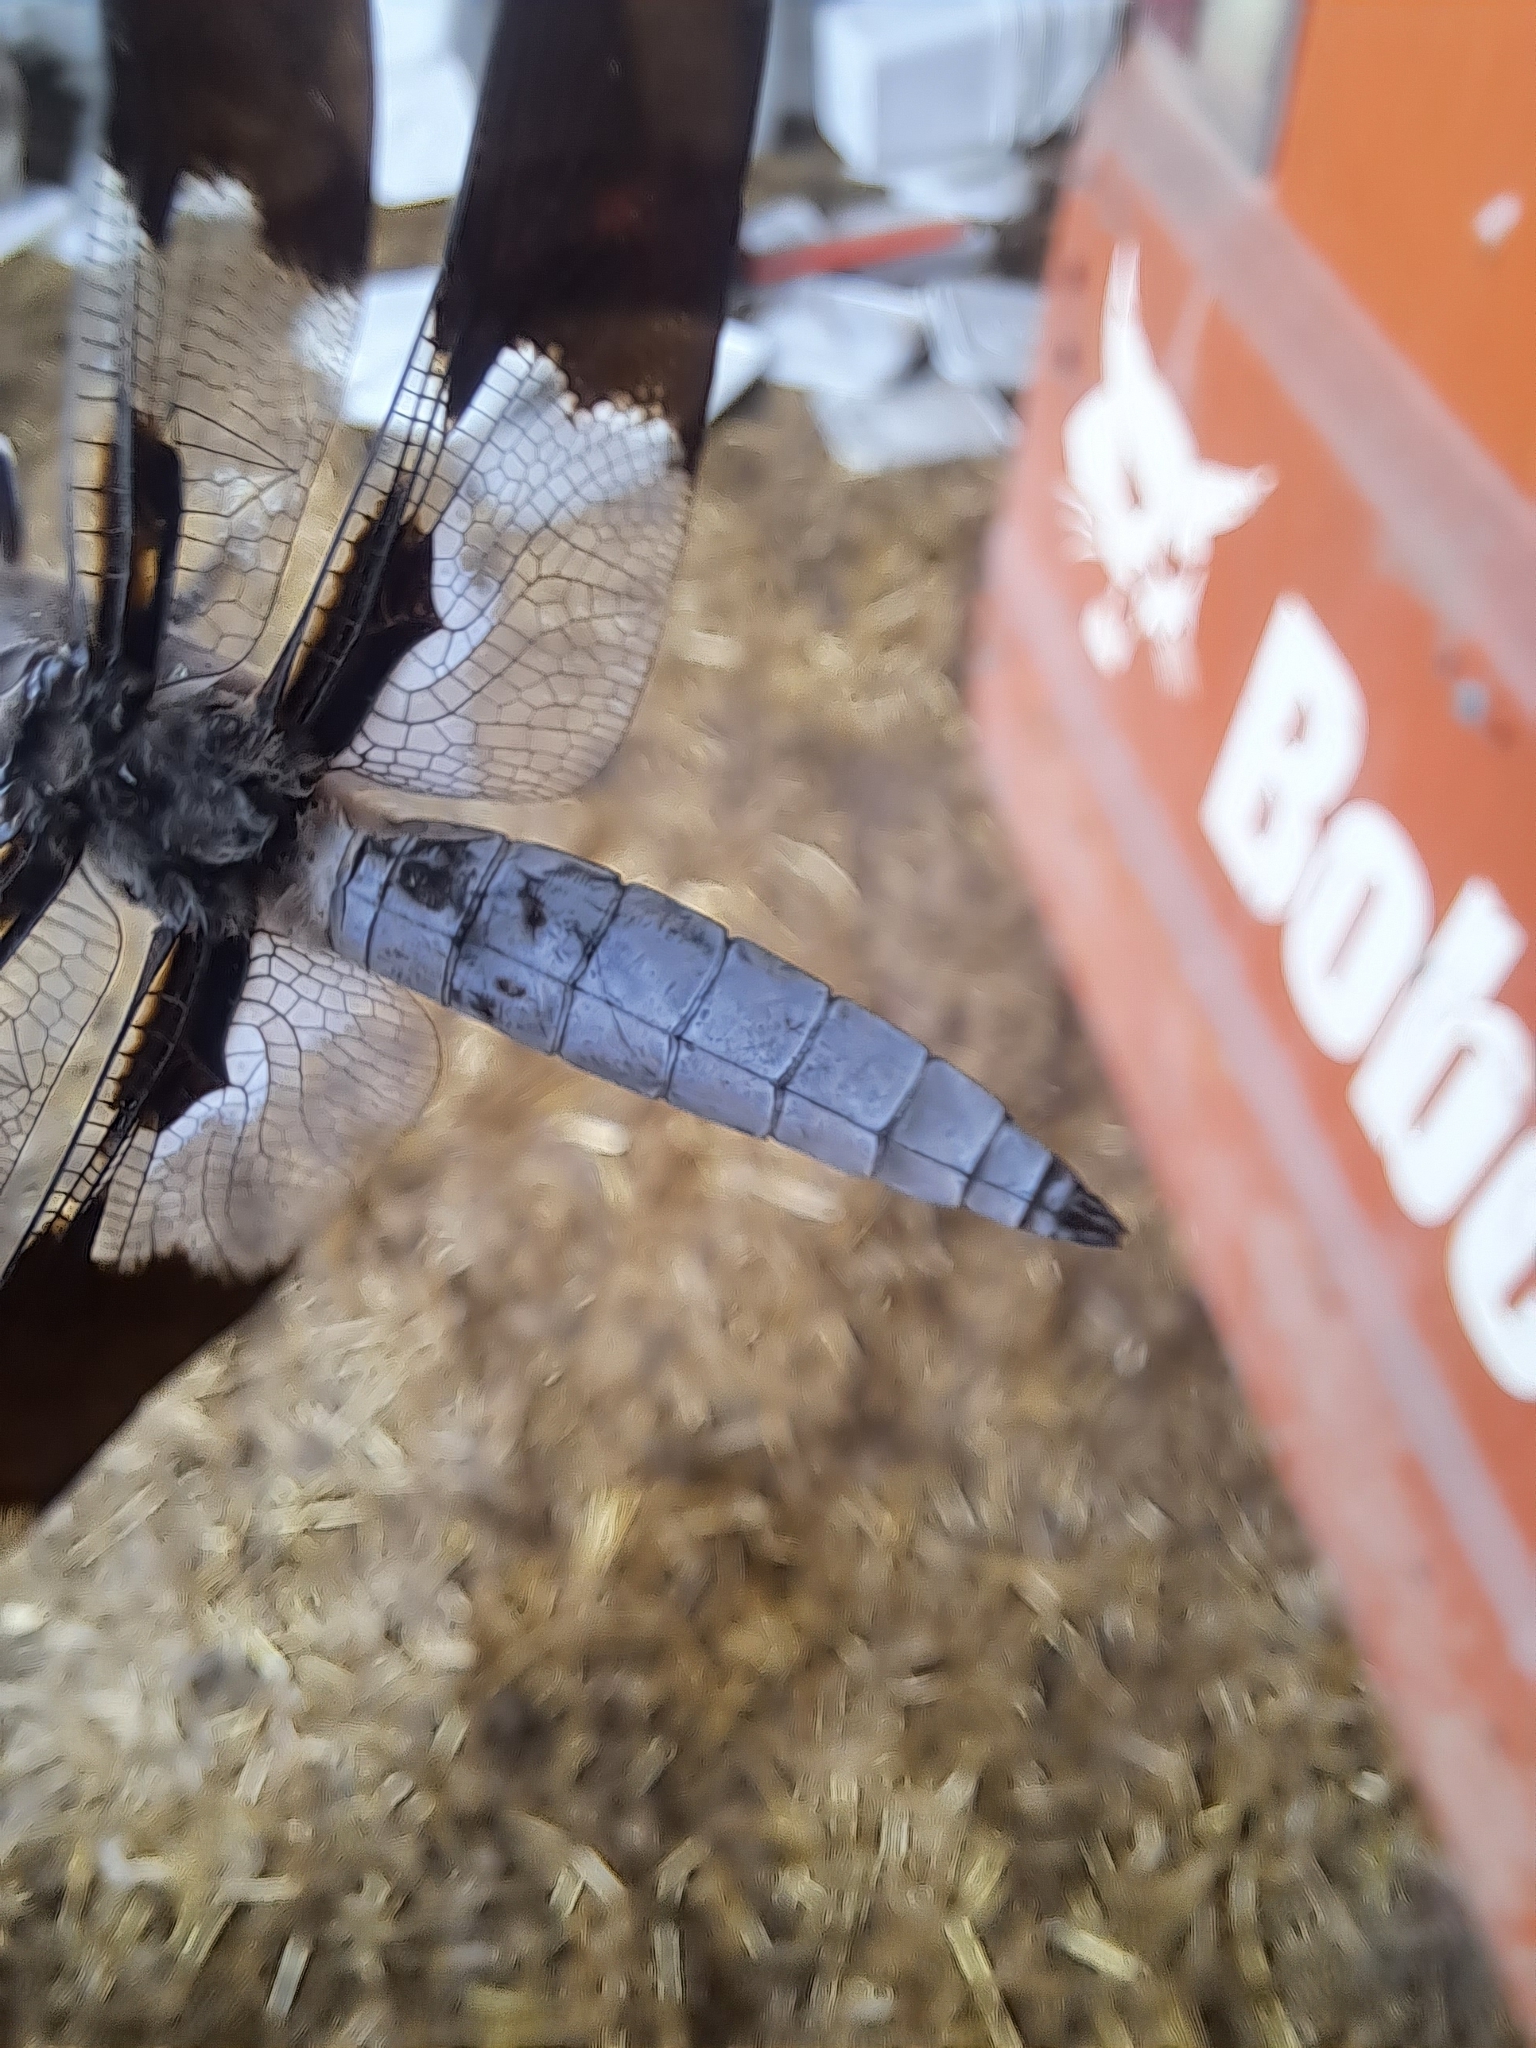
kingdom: Animalia
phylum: Arthropoda
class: Insecta
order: Odonata
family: Libellulidae
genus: Plathemis
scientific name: Plathemis lydia
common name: Common whitetail
